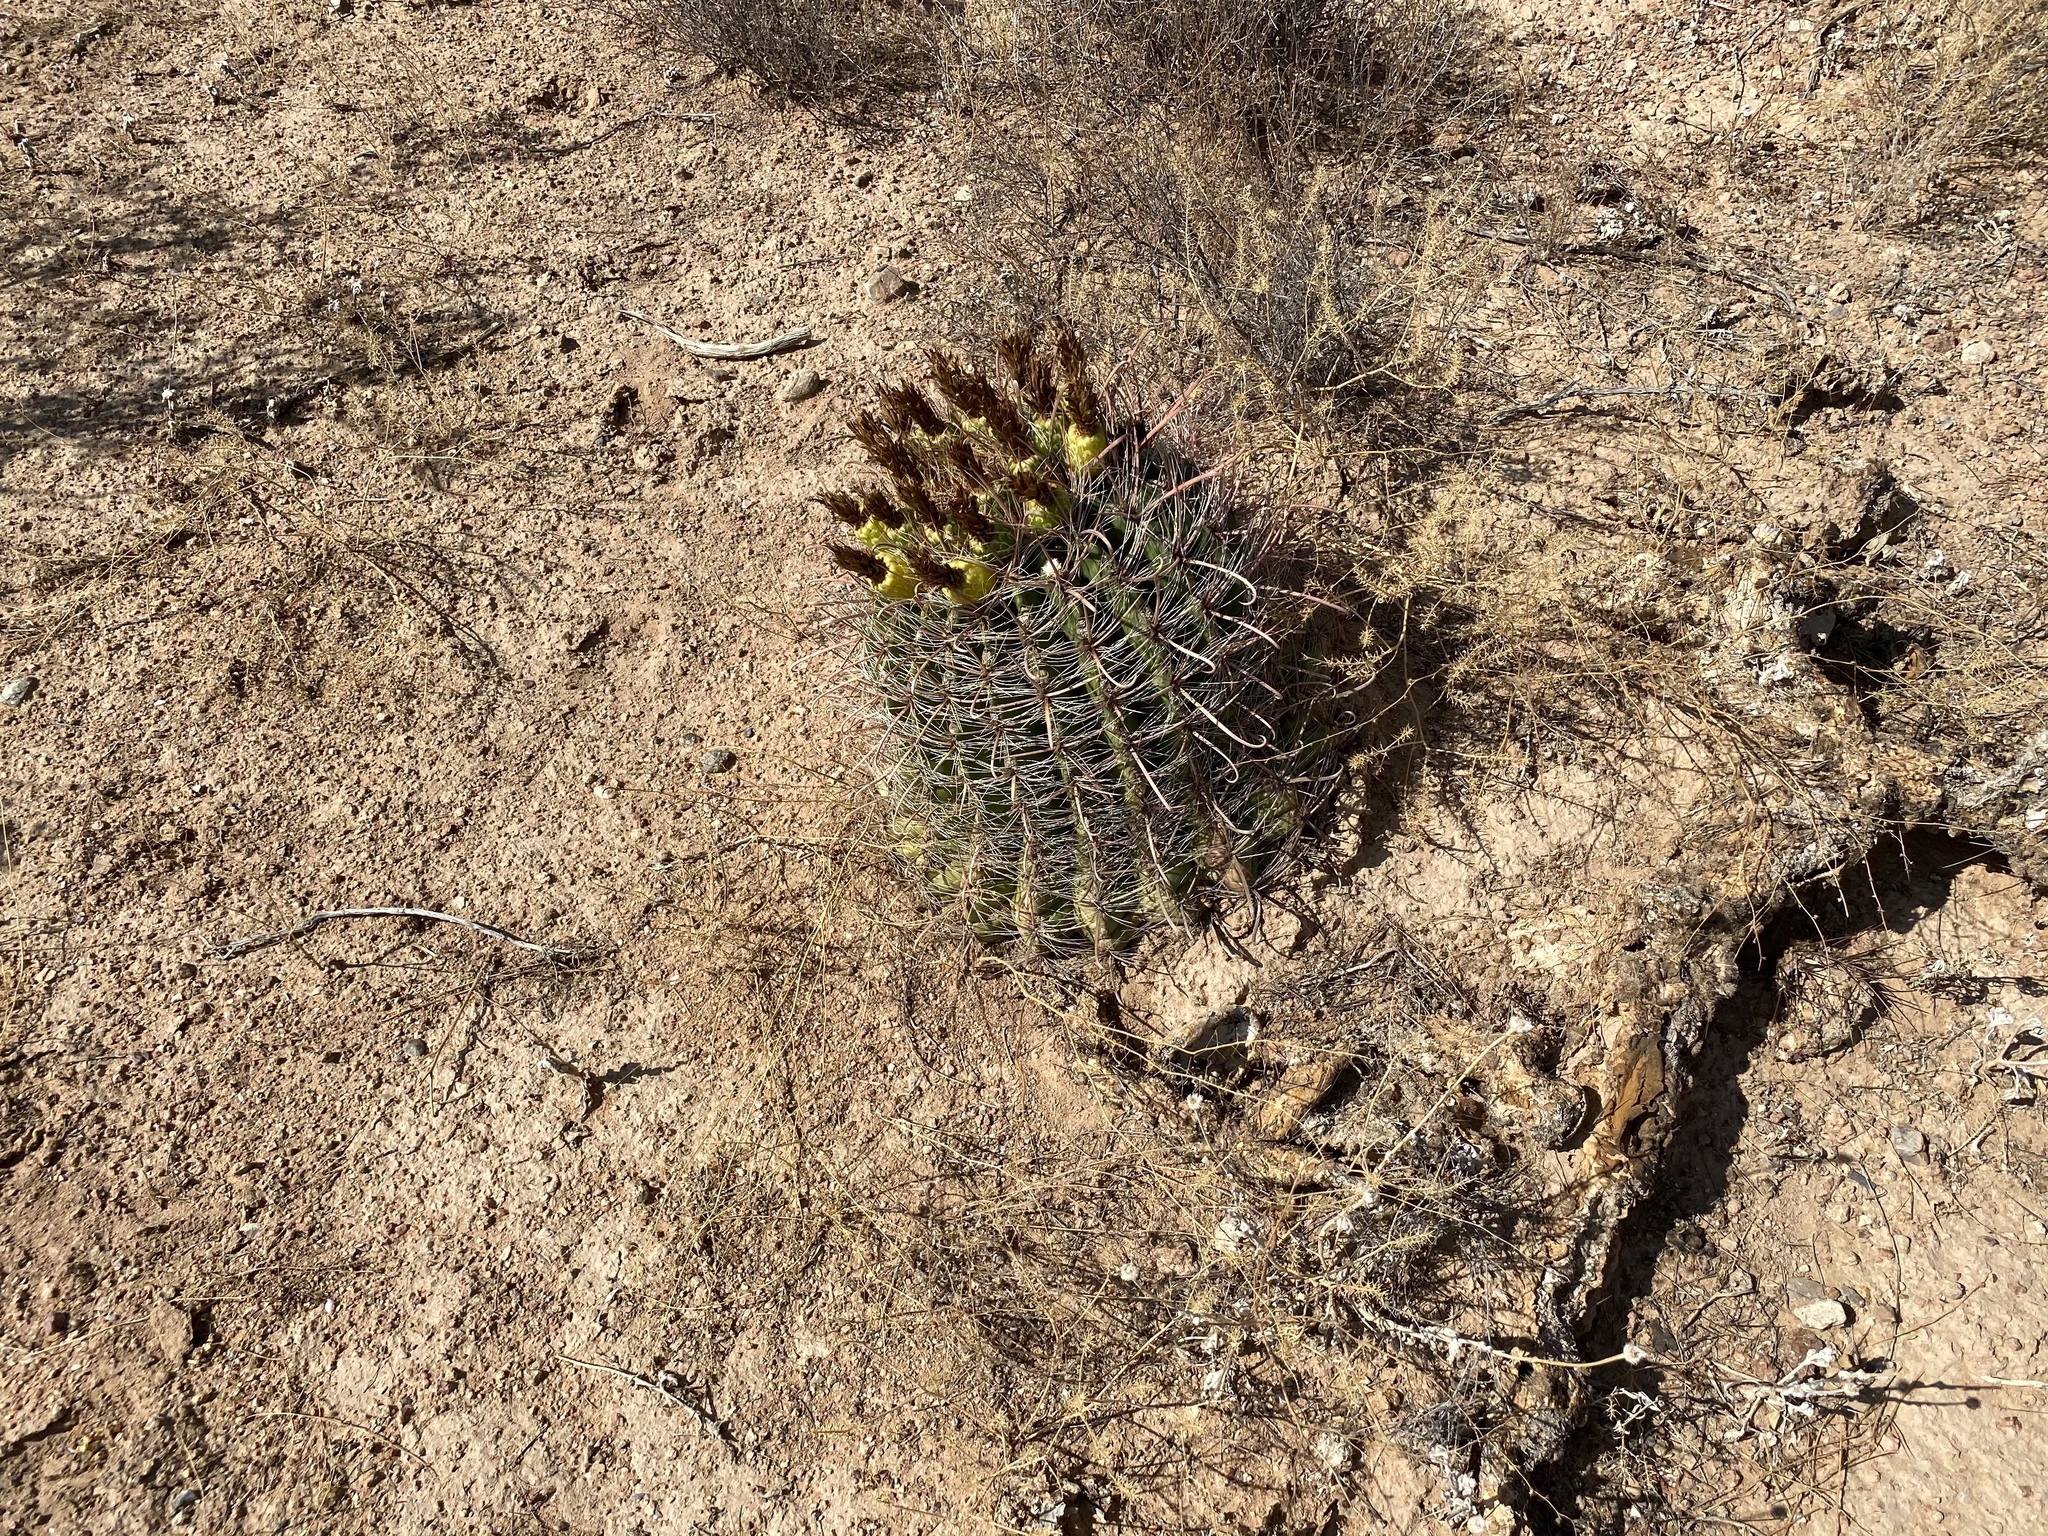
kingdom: Plantae
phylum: Tracheophyta
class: Magnoliopsida
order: Caryophyllales
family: Cactaceae
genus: Ferocactus
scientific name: Ferocactus wislizeni
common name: Candy barrel cactus
